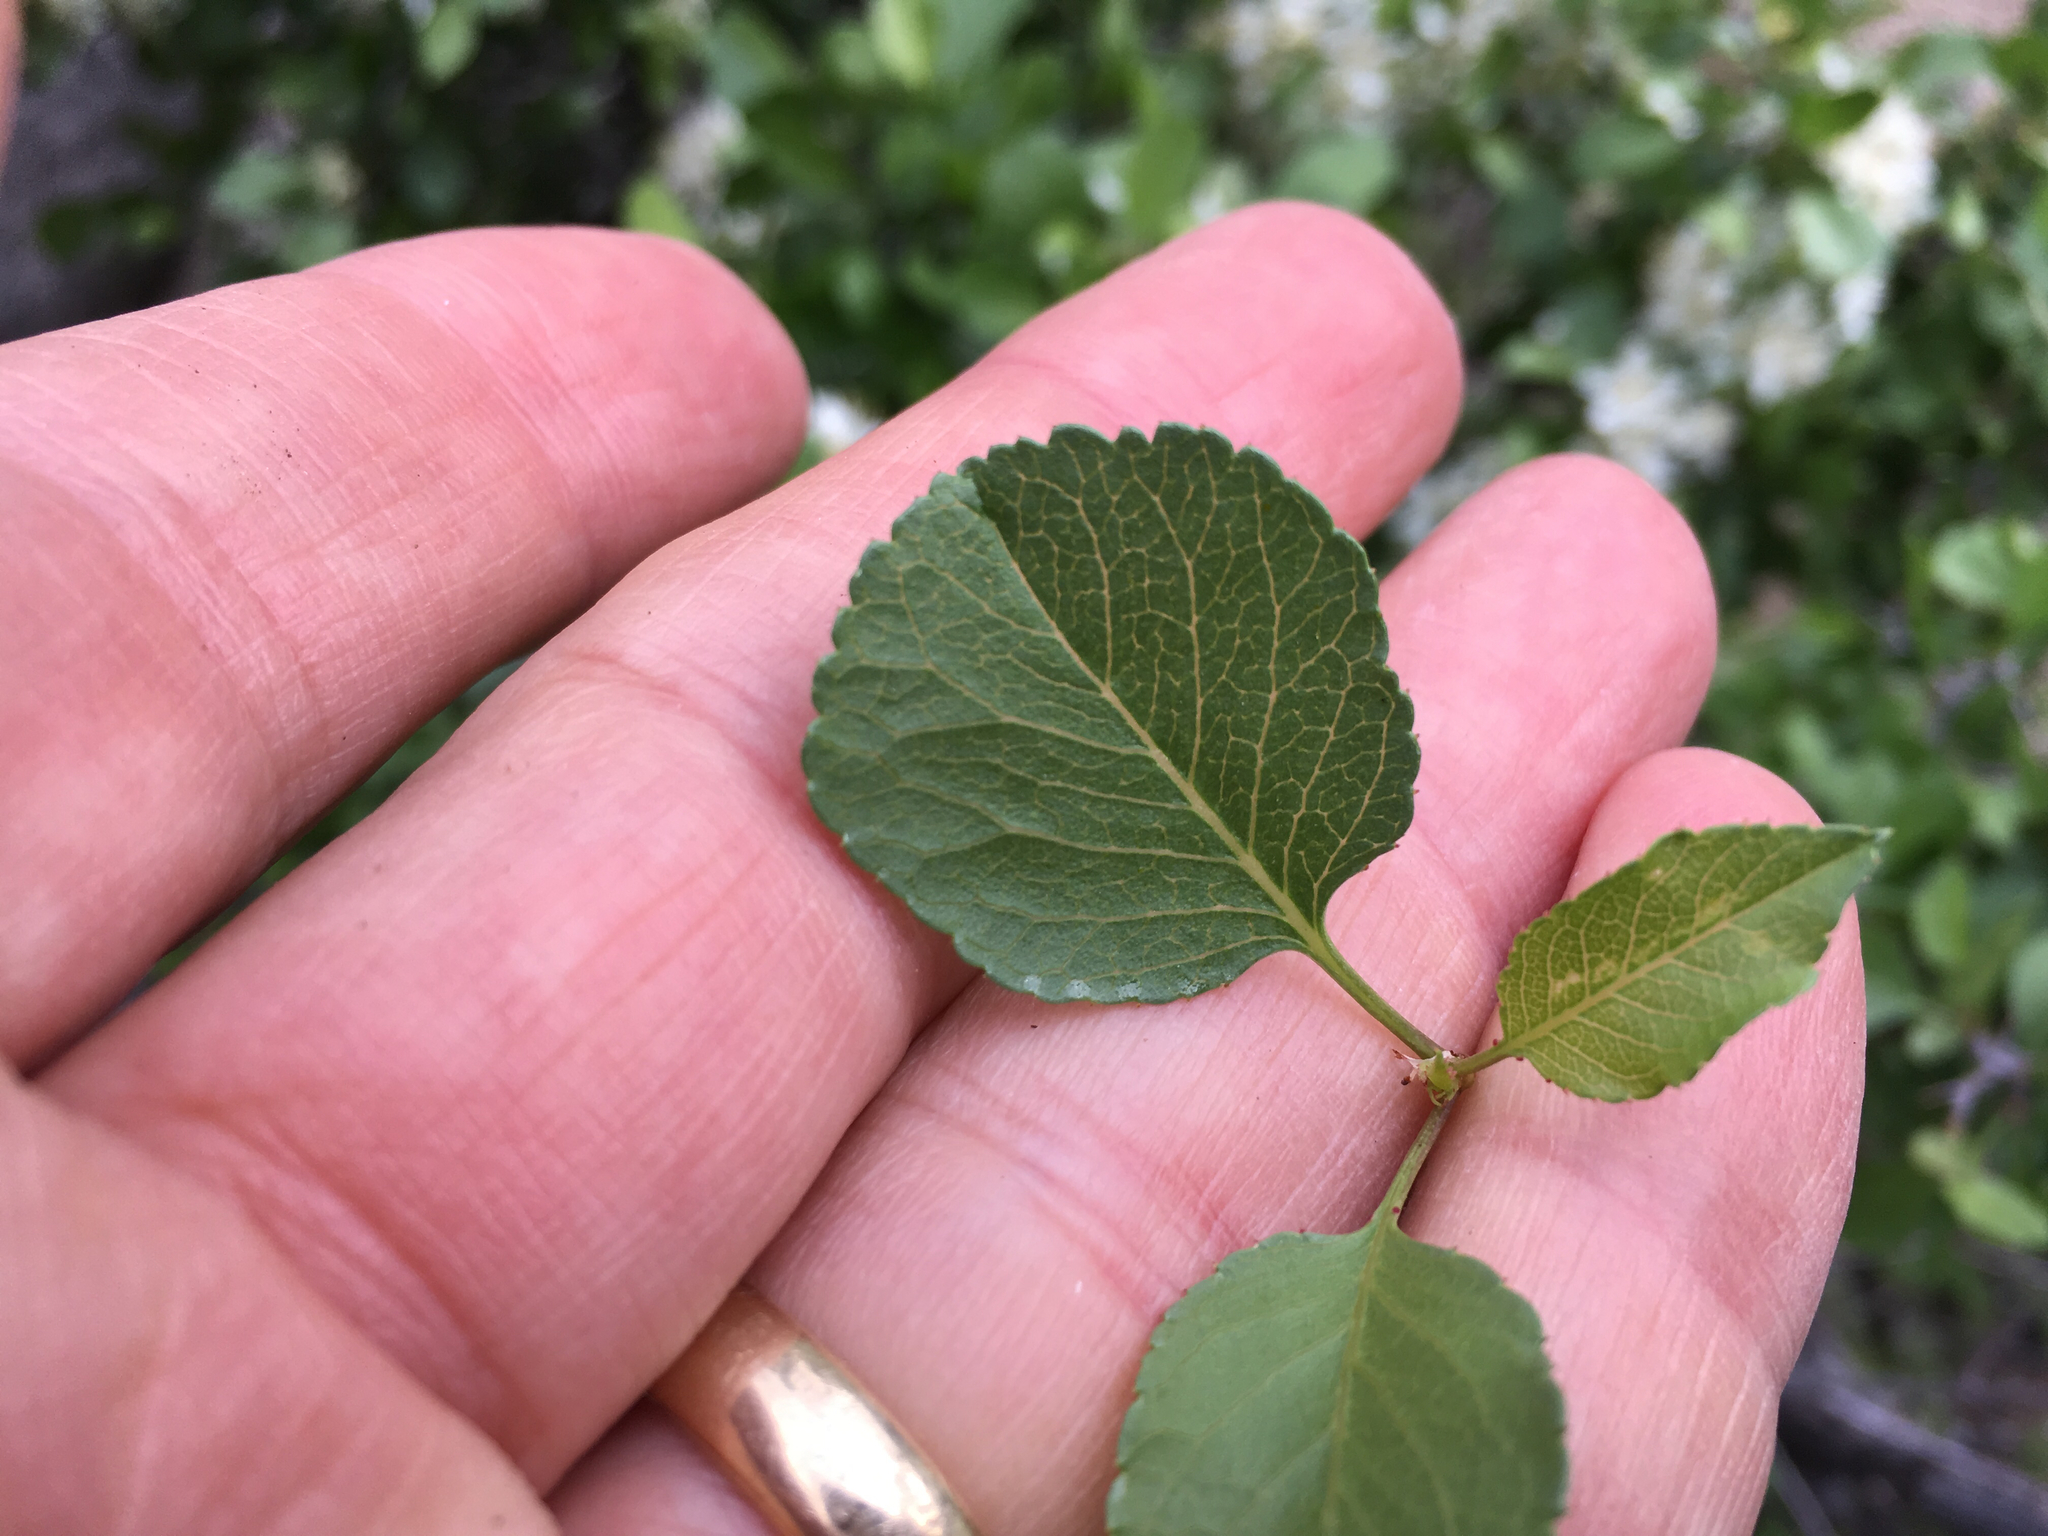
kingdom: Plantae
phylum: Tracheophyta
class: Magnoliopsida
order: Rosales
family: Rosaceae
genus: Prunus
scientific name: Prunus fremontii
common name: Desert apricot
